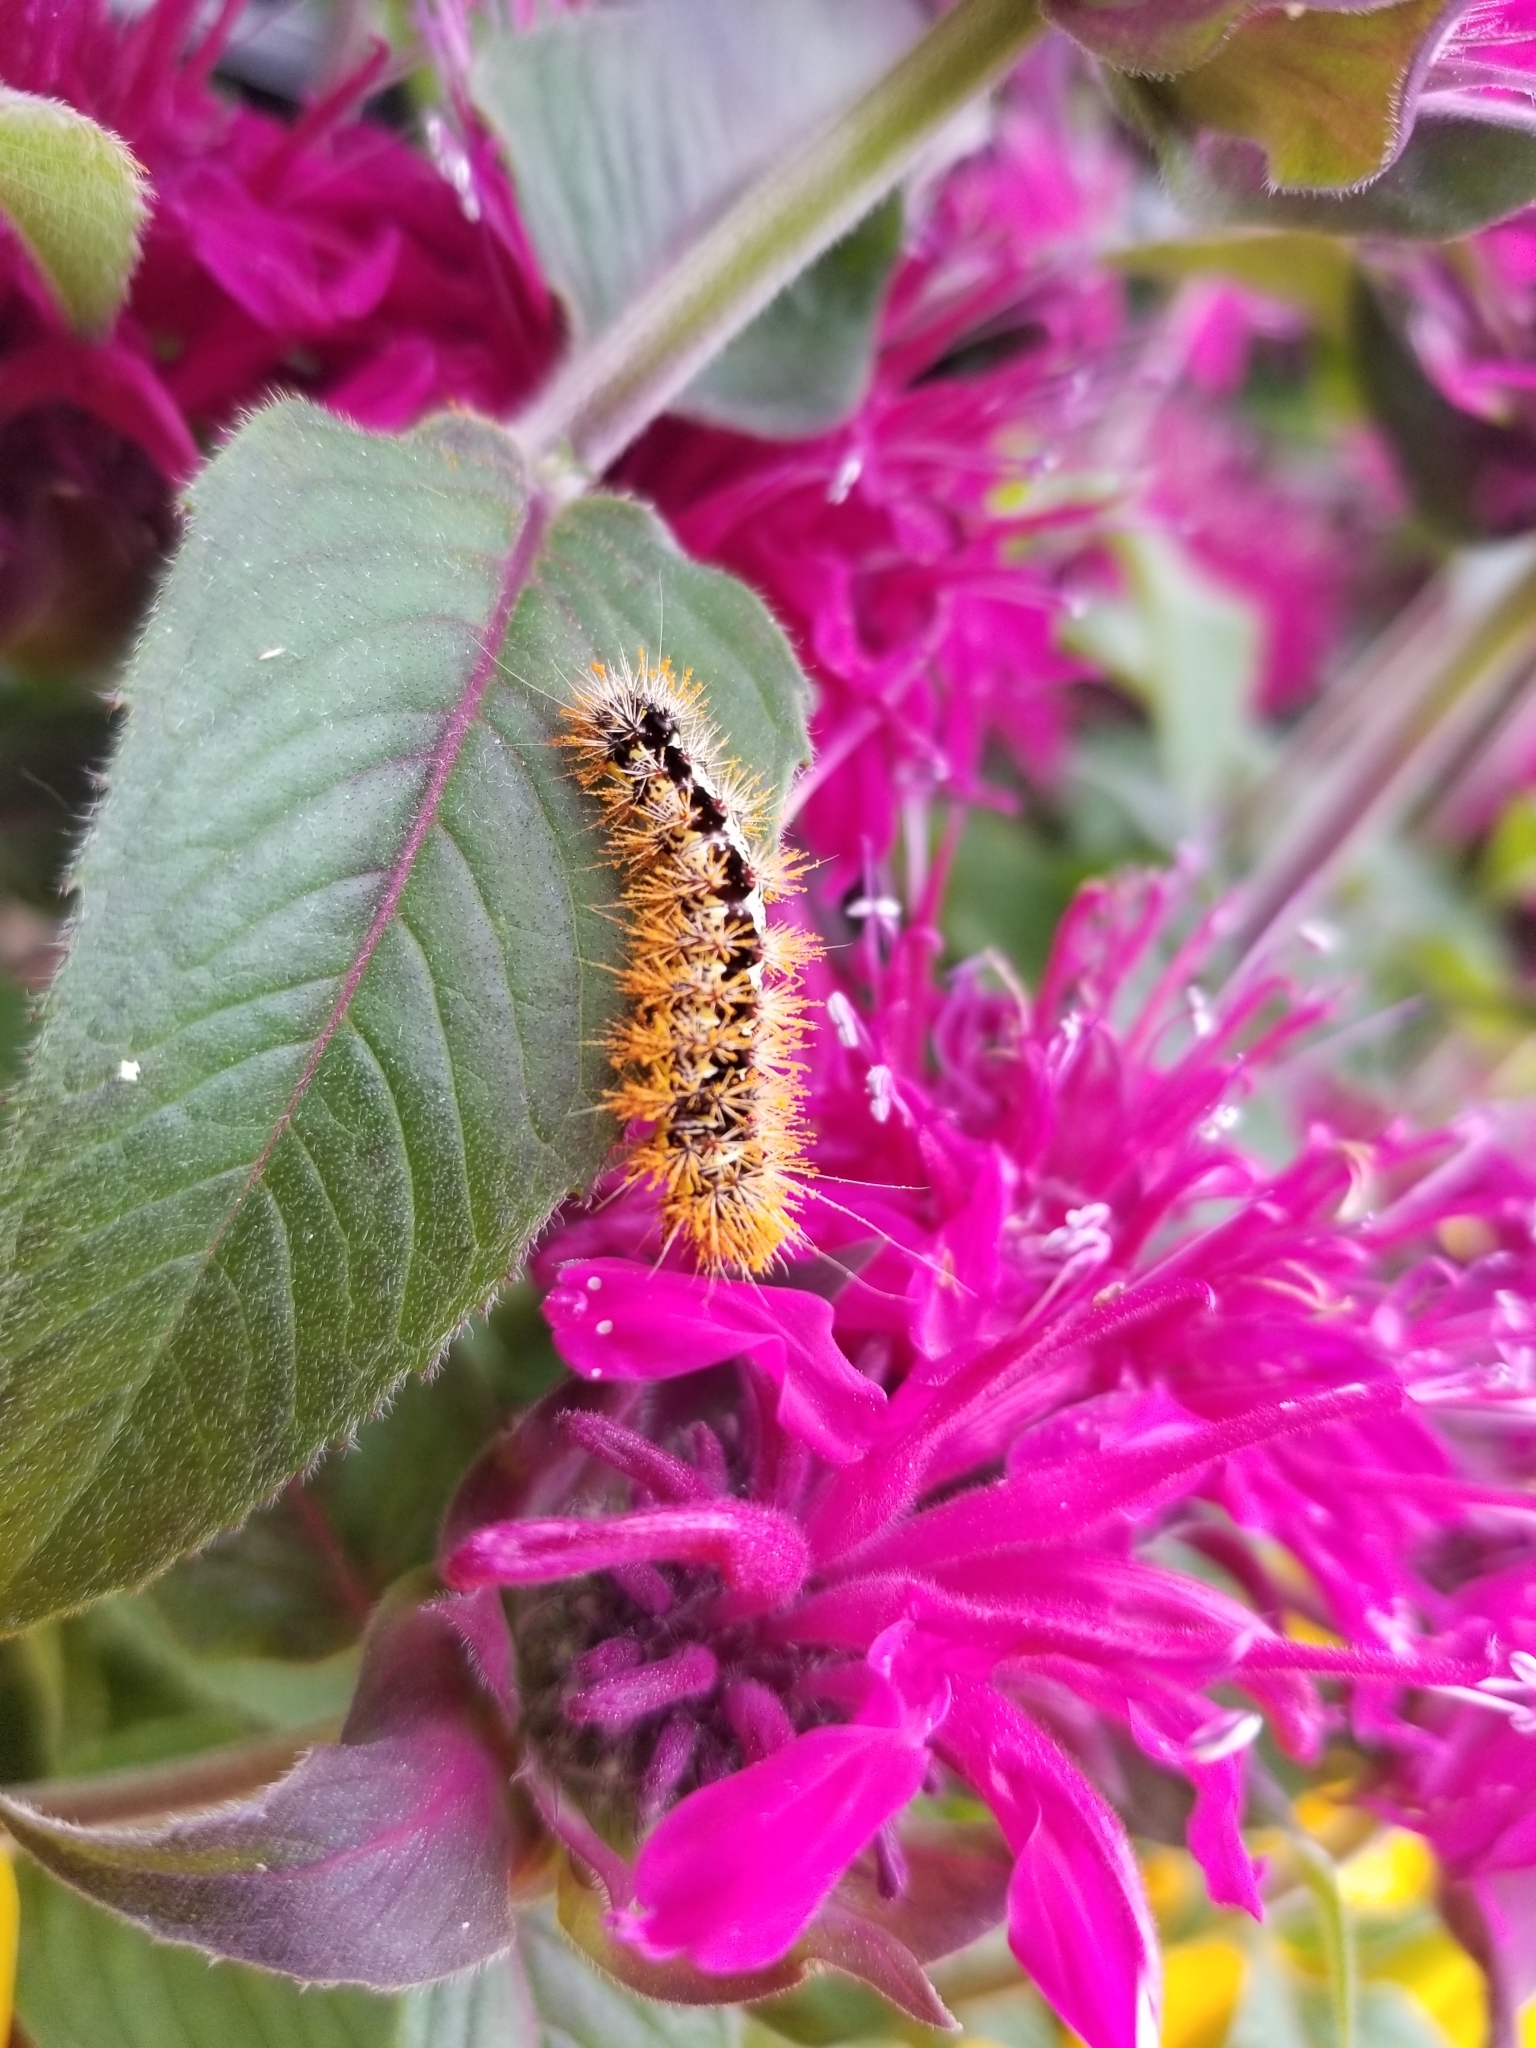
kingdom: Animalia
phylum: Arthropoda
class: Insecta
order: Lepidoptera
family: Noctuidae
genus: Acronicta
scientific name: Acronicta oblinita
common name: Smeared dagger
